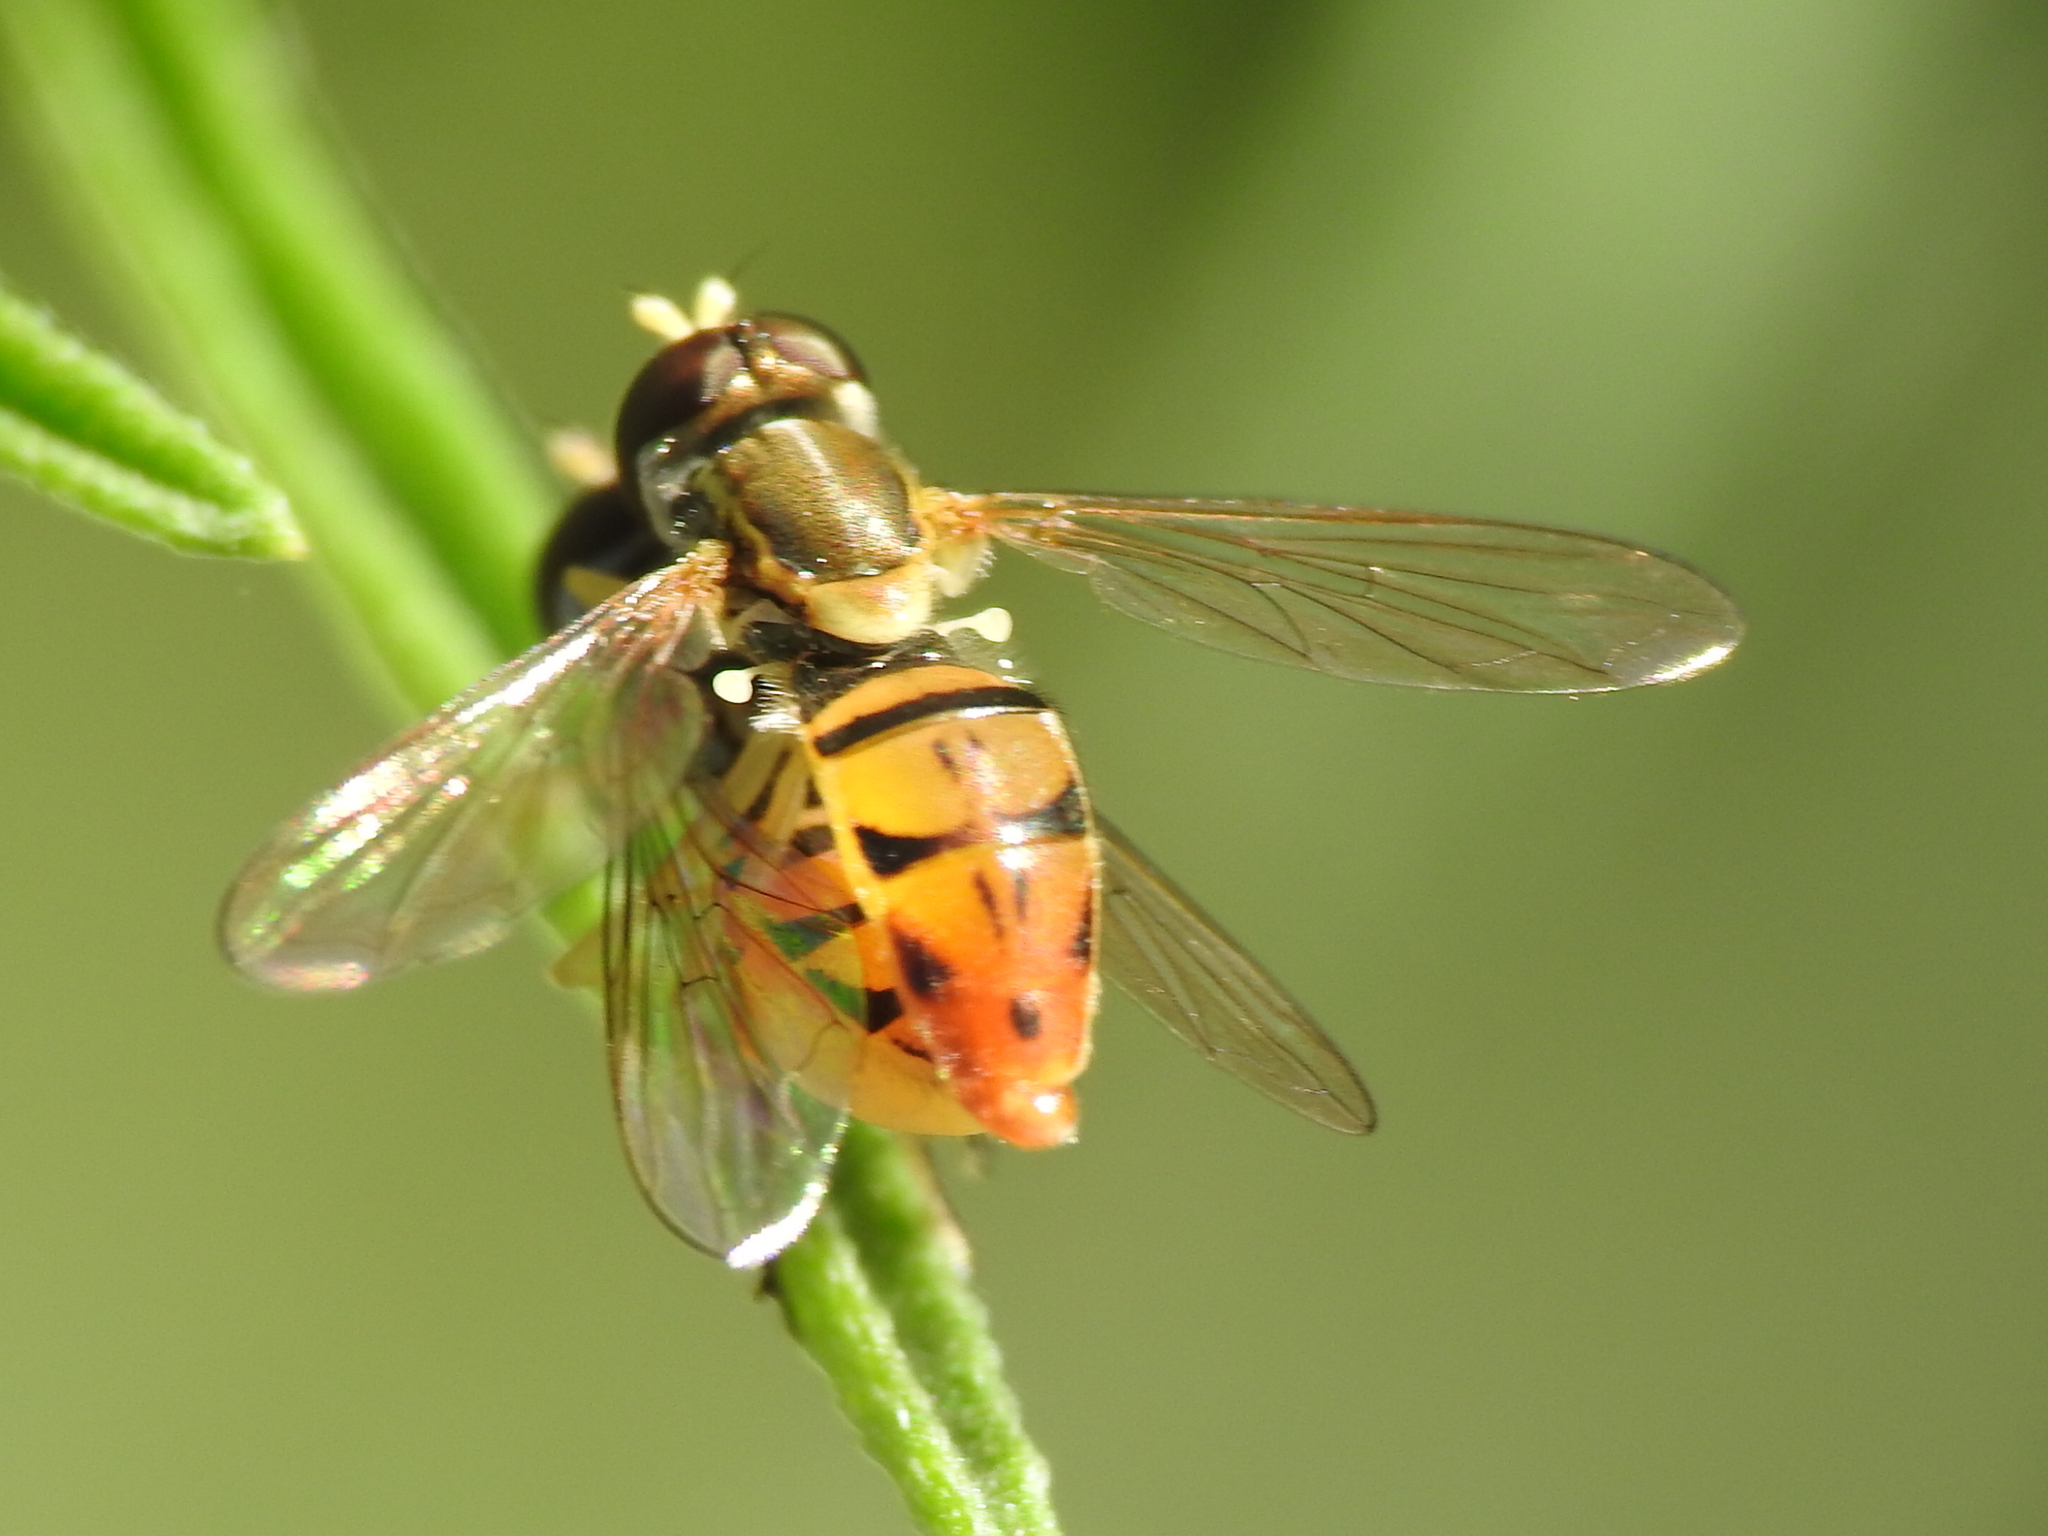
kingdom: Animalia
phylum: Arthropoda
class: Insecta
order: Diptera
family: Syrphidae
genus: Toxomerus
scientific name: Toxomerus marginatus
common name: Syrphid fly
